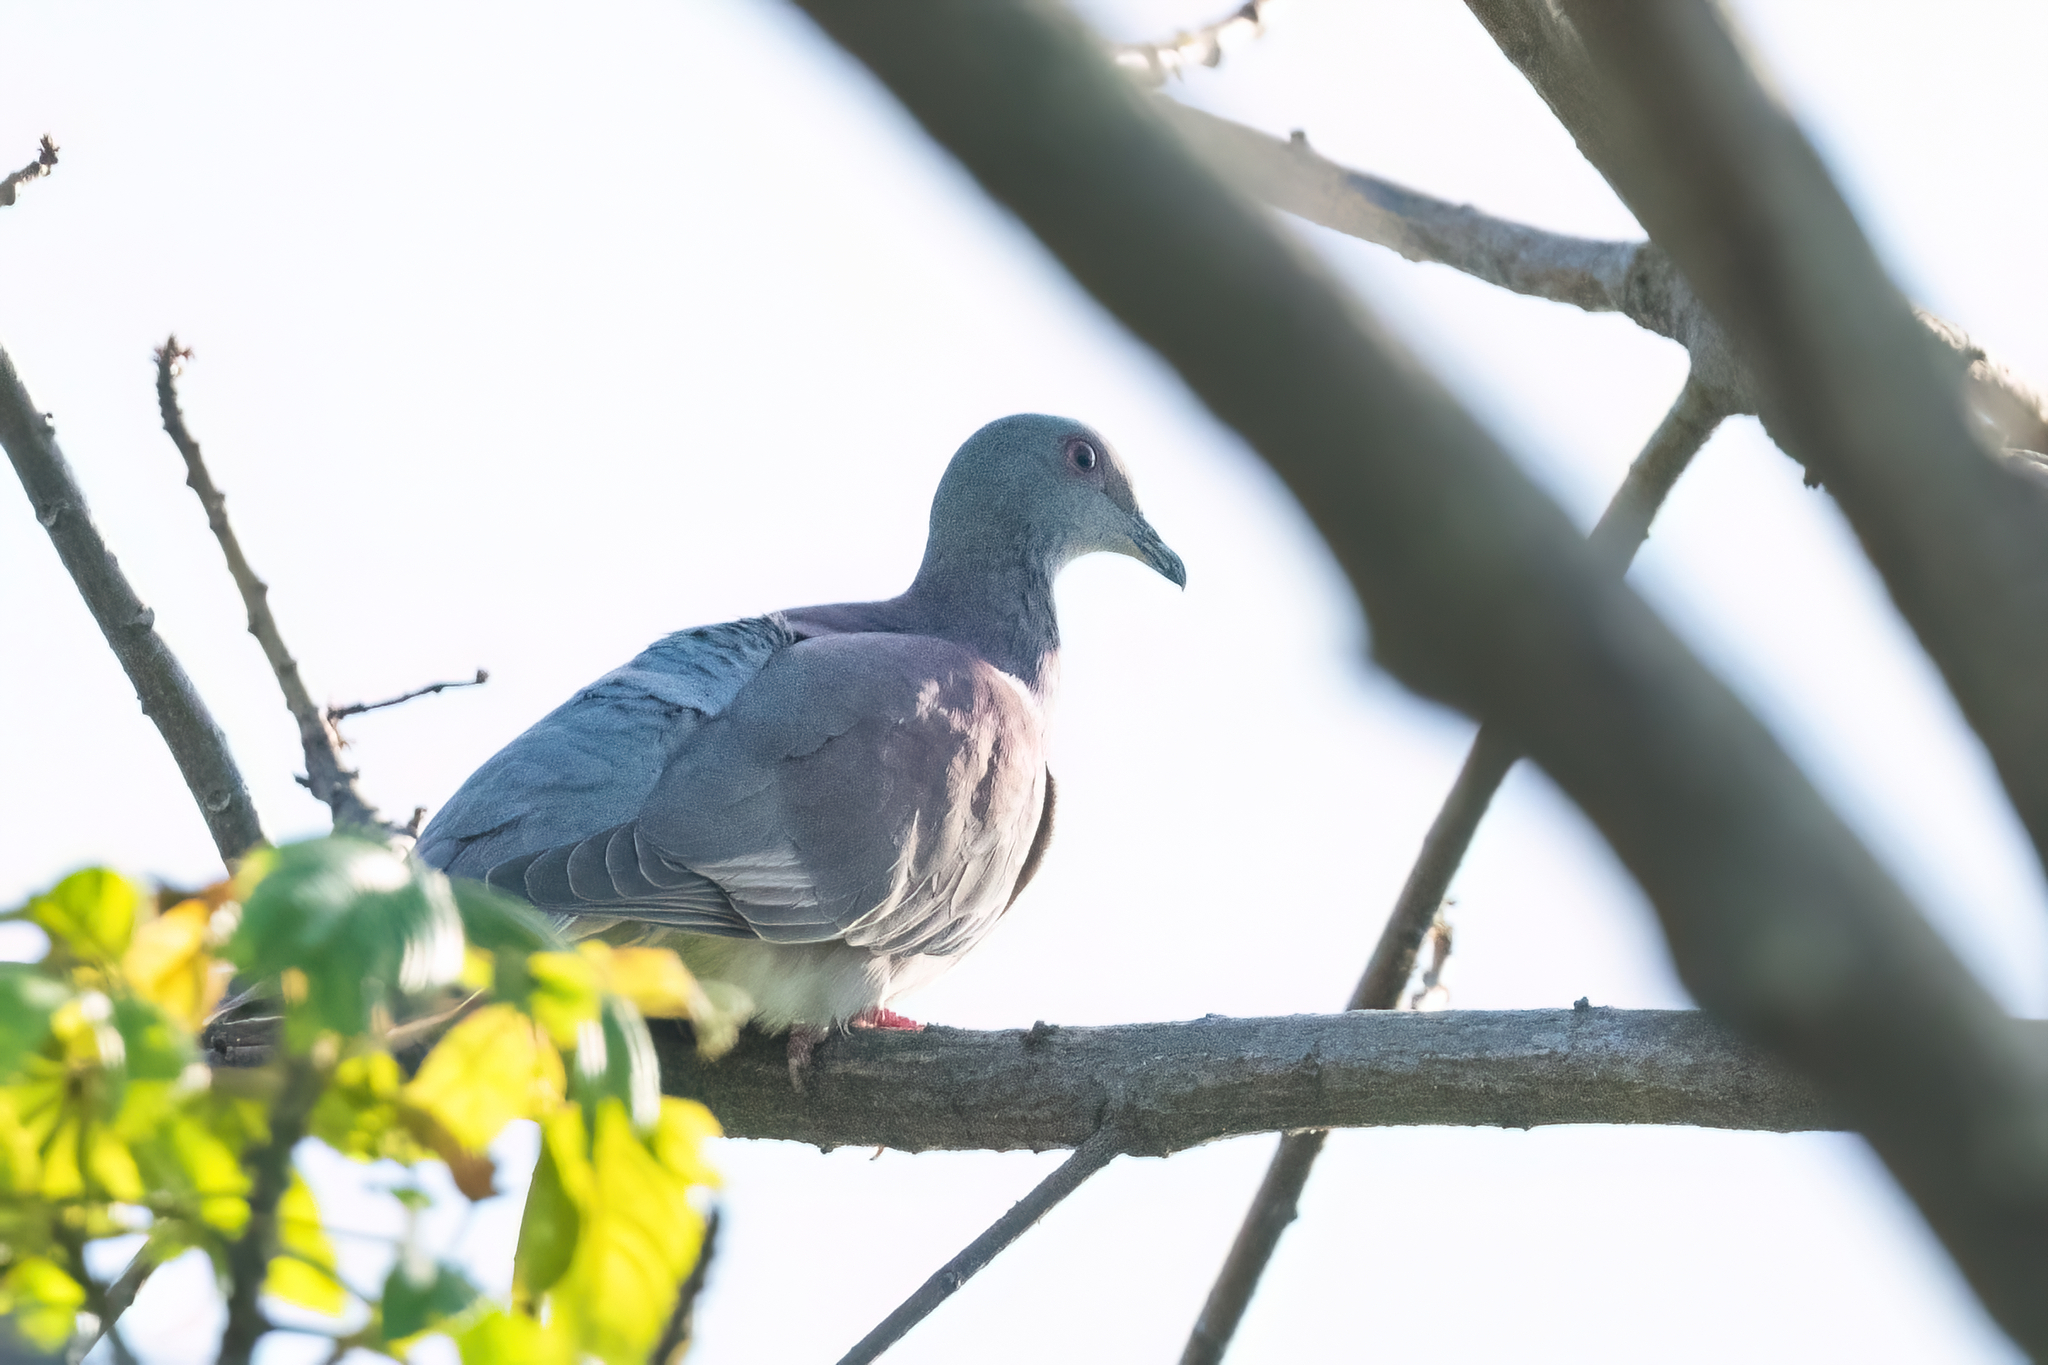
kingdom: Animalia
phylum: Chordata
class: Aves
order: Columbiformes
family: Columbidae
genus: Patagioenas
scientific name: Patagioenas cayennensis
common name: Pale-vented pigeon
